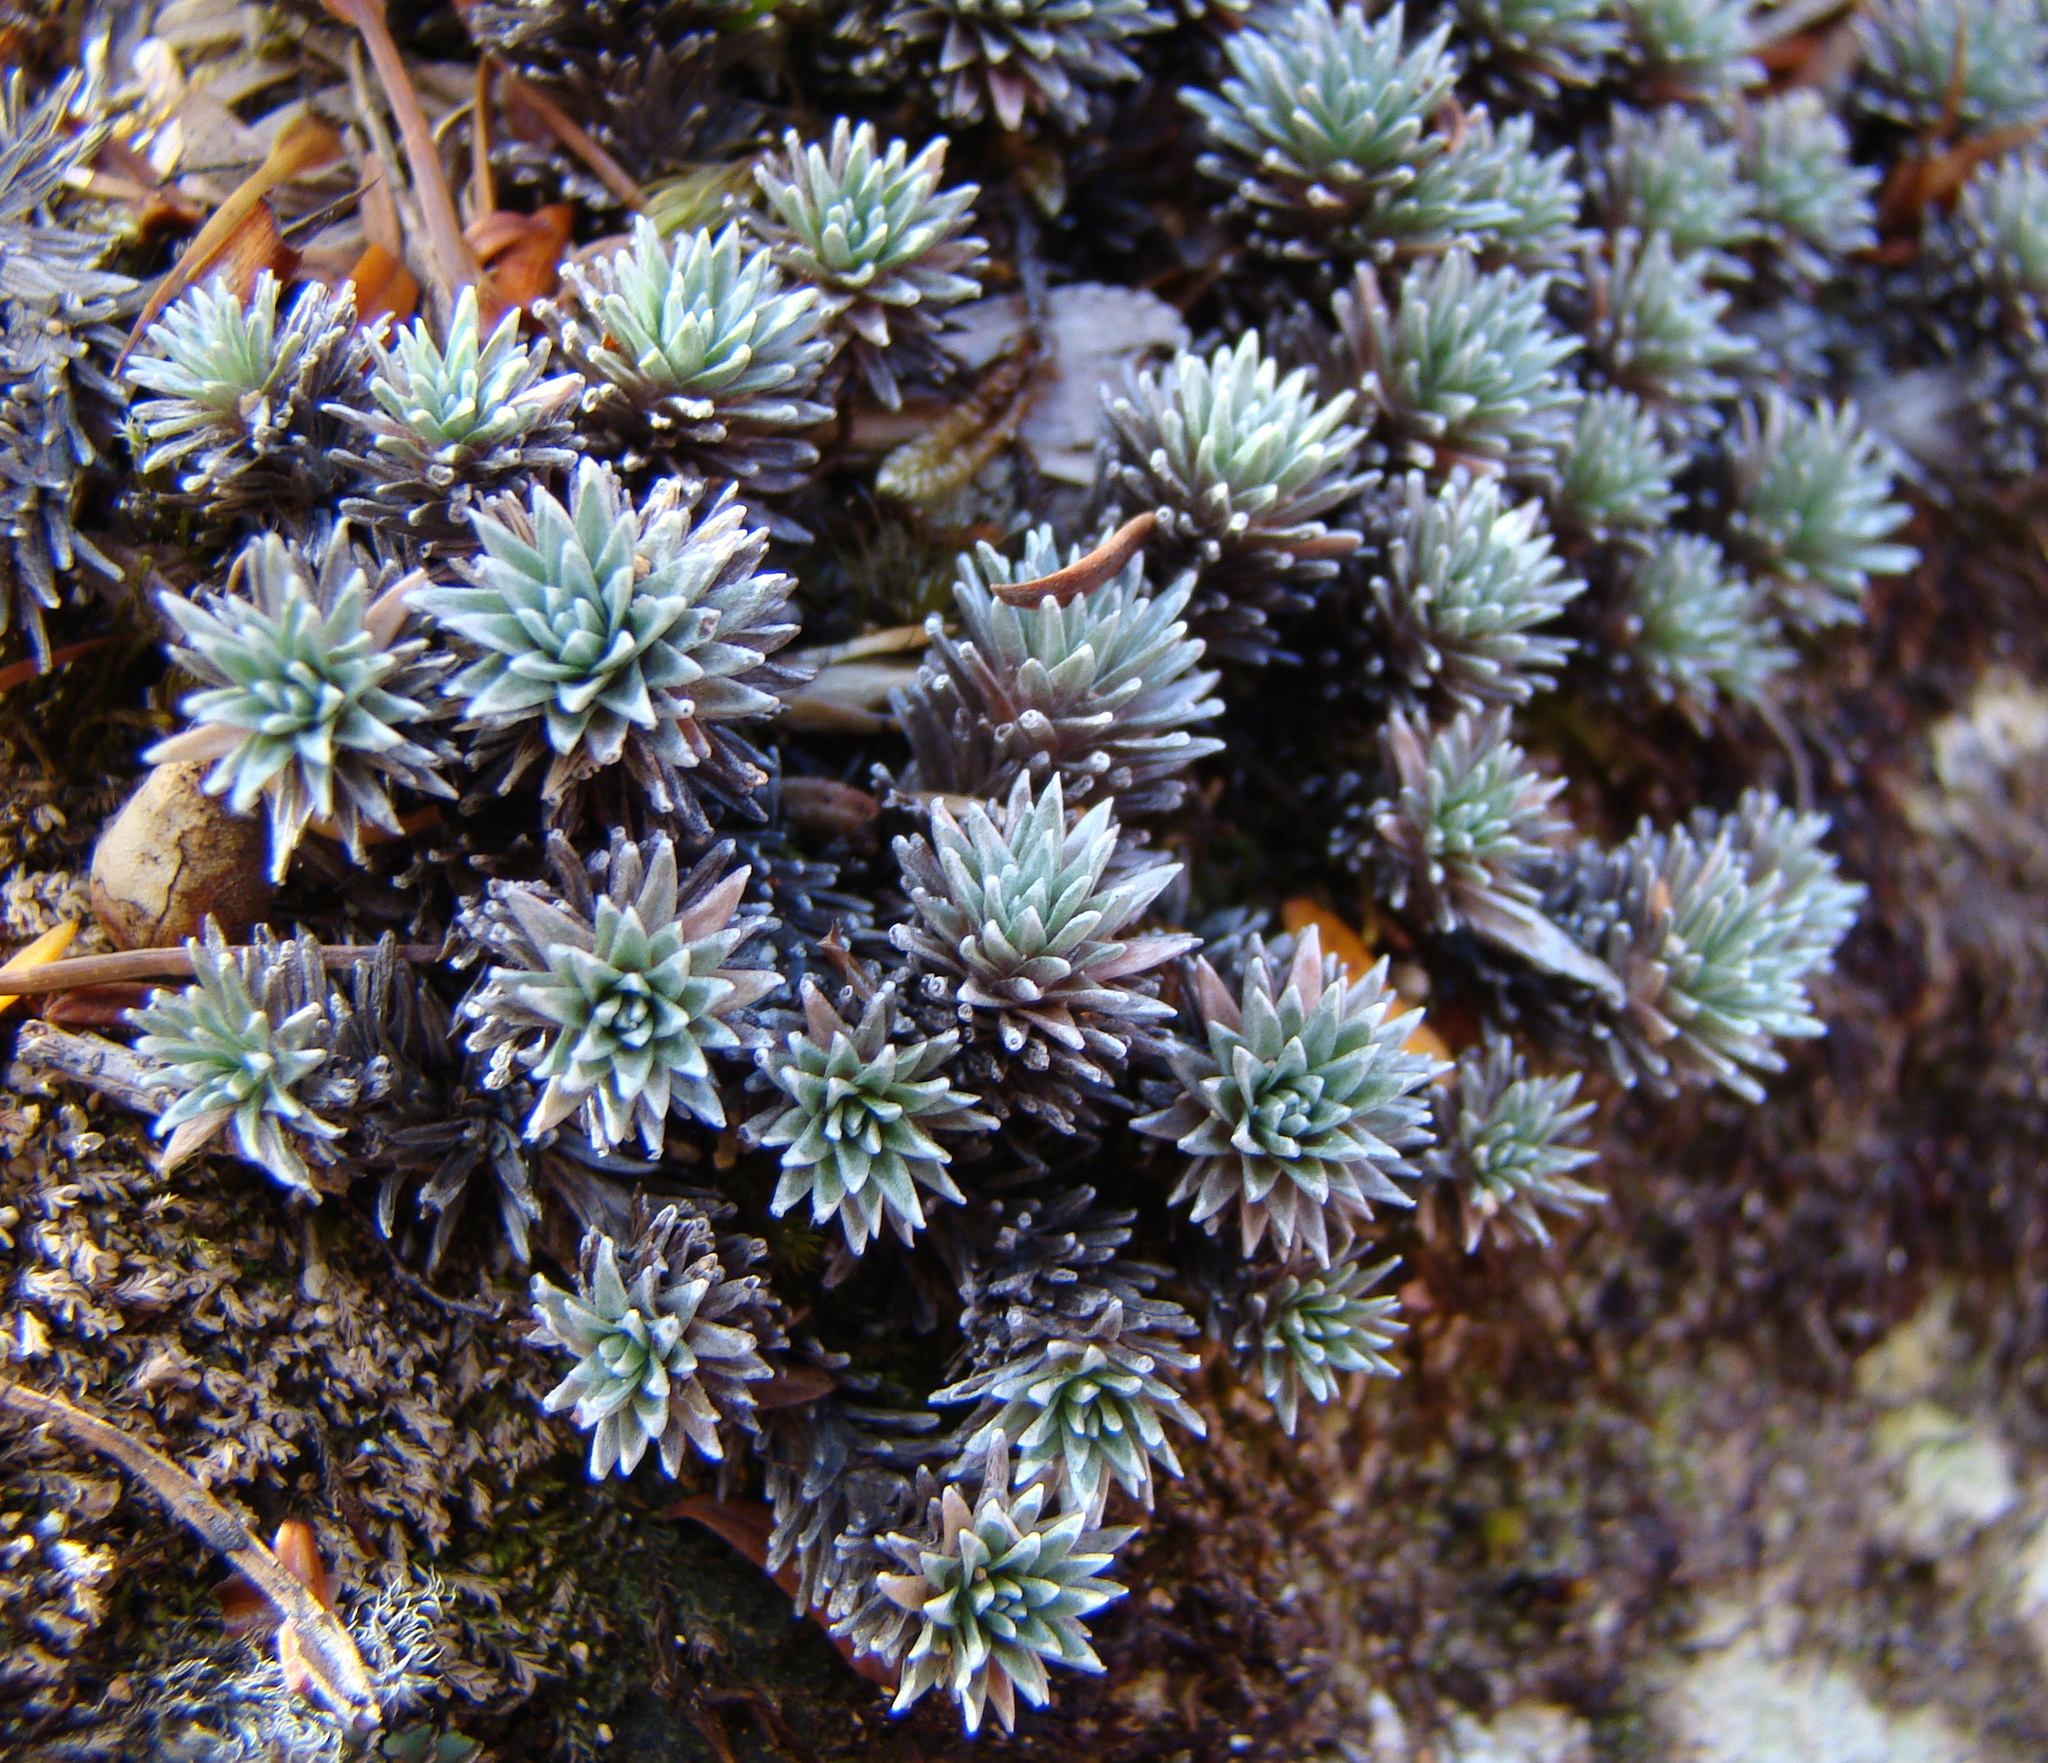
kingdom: Plantae
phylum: Tracheophyta
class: Magnoliopsida
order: Asterales
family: Asteraceae
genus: Raoulia
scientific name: Raoulia grandiflora
